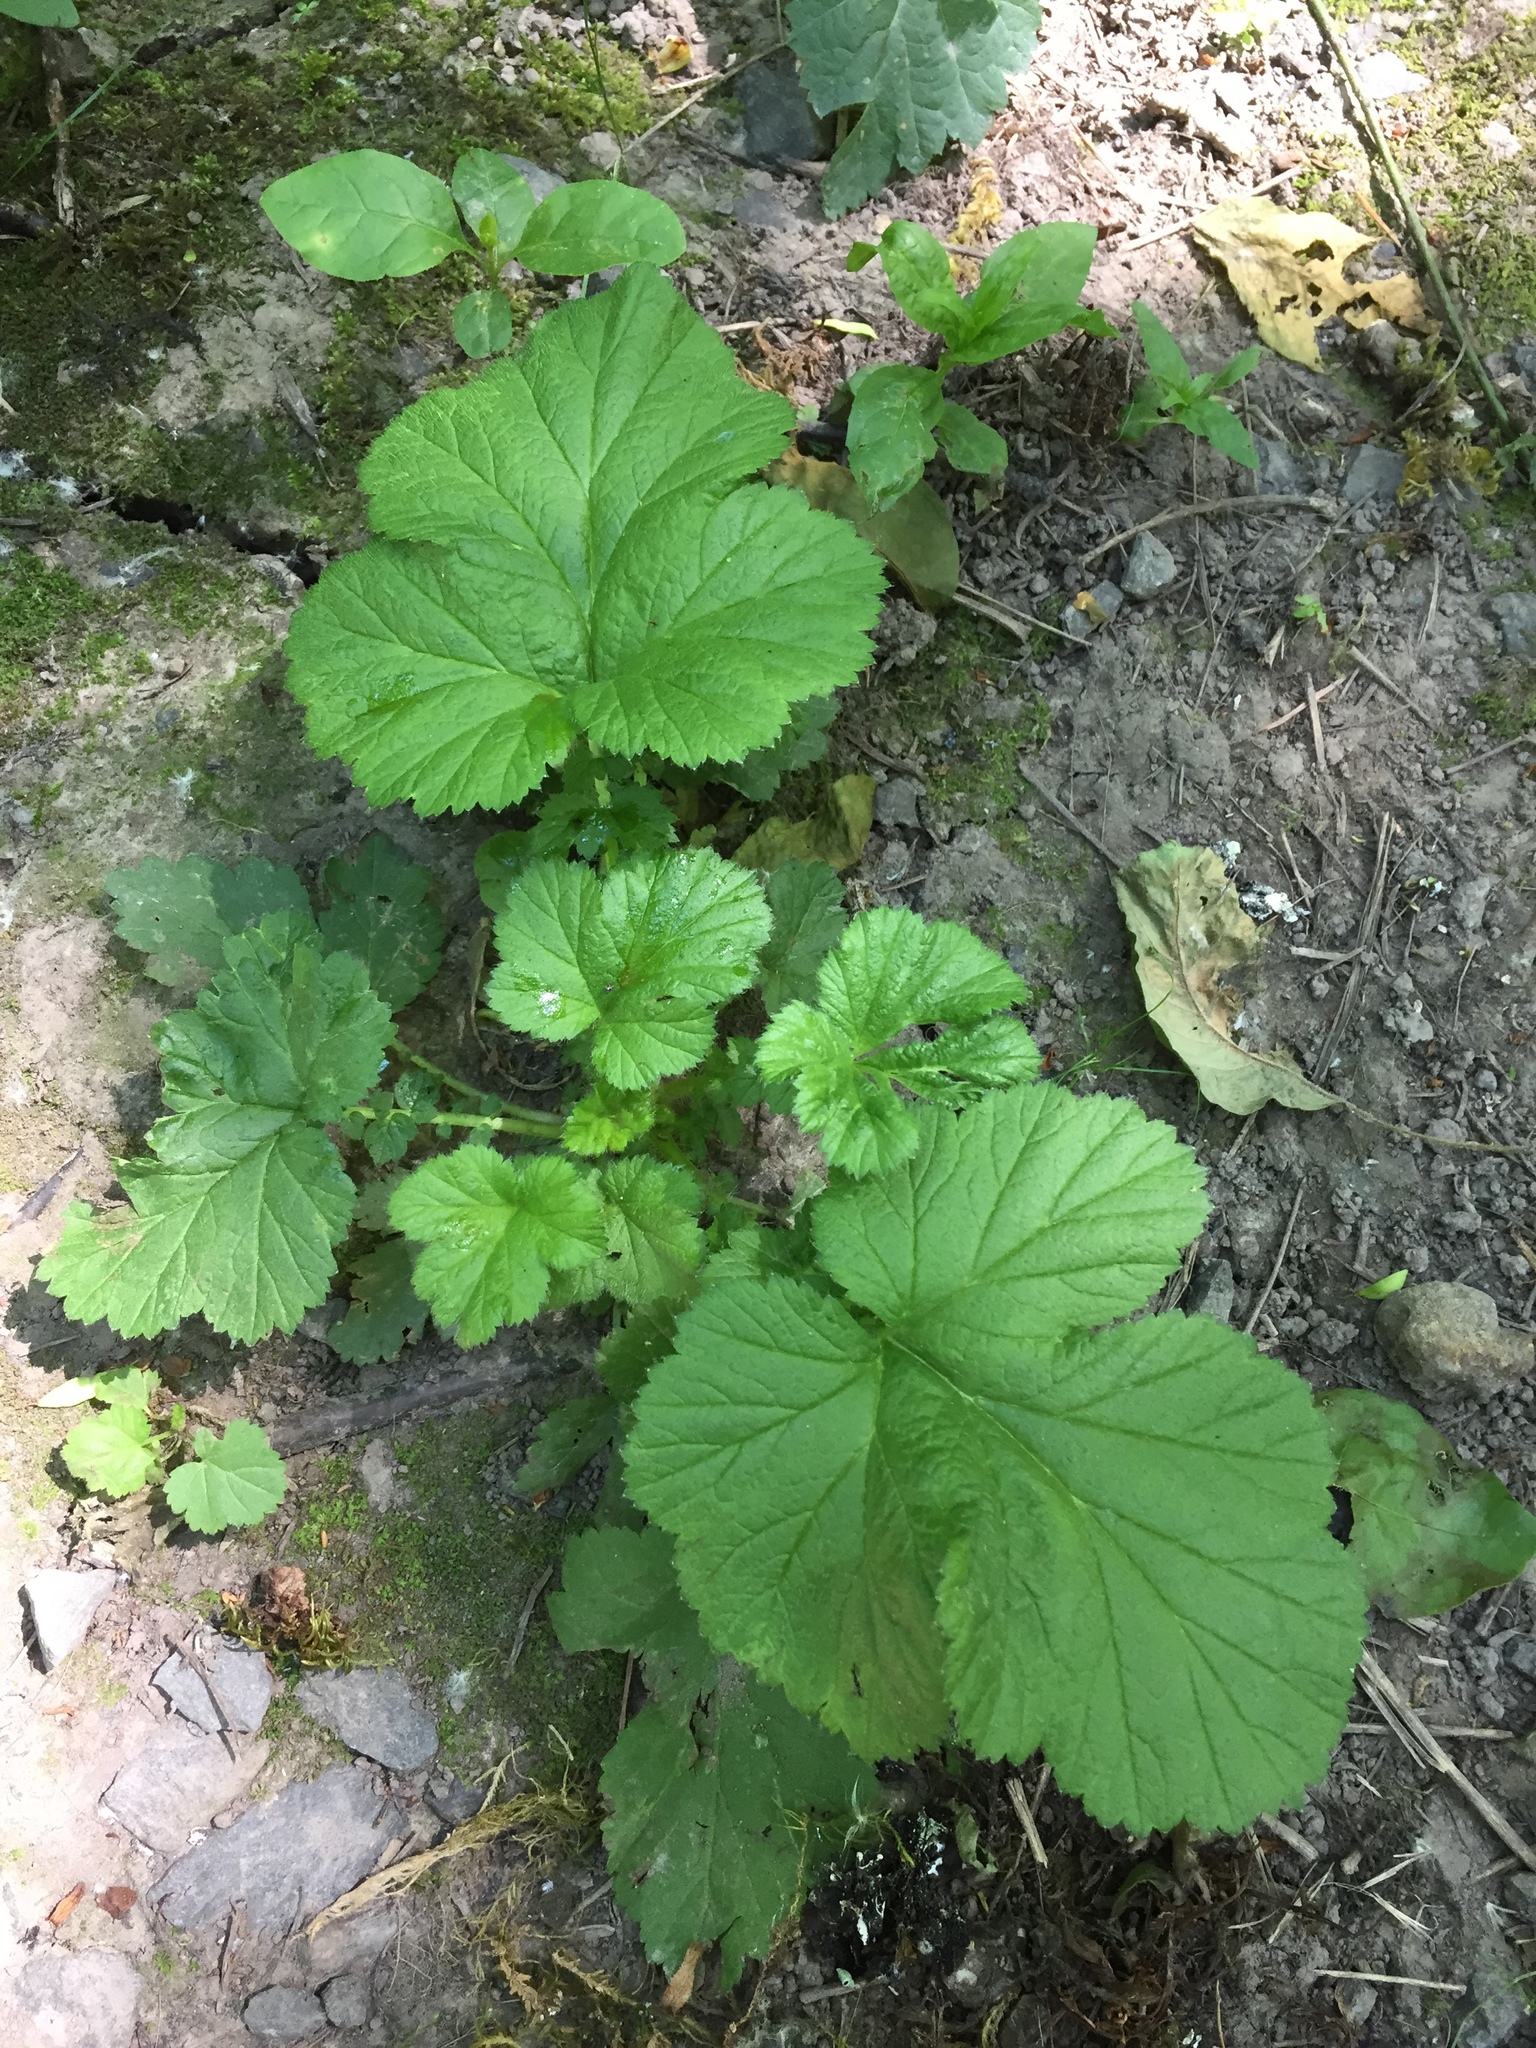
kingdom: Plantae
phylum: Tracheophyta
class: Magnoliopsida
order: Rosales
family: Rosaceae
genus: Geum
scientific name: Geum macrophyllum
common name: Large-leaved avens
